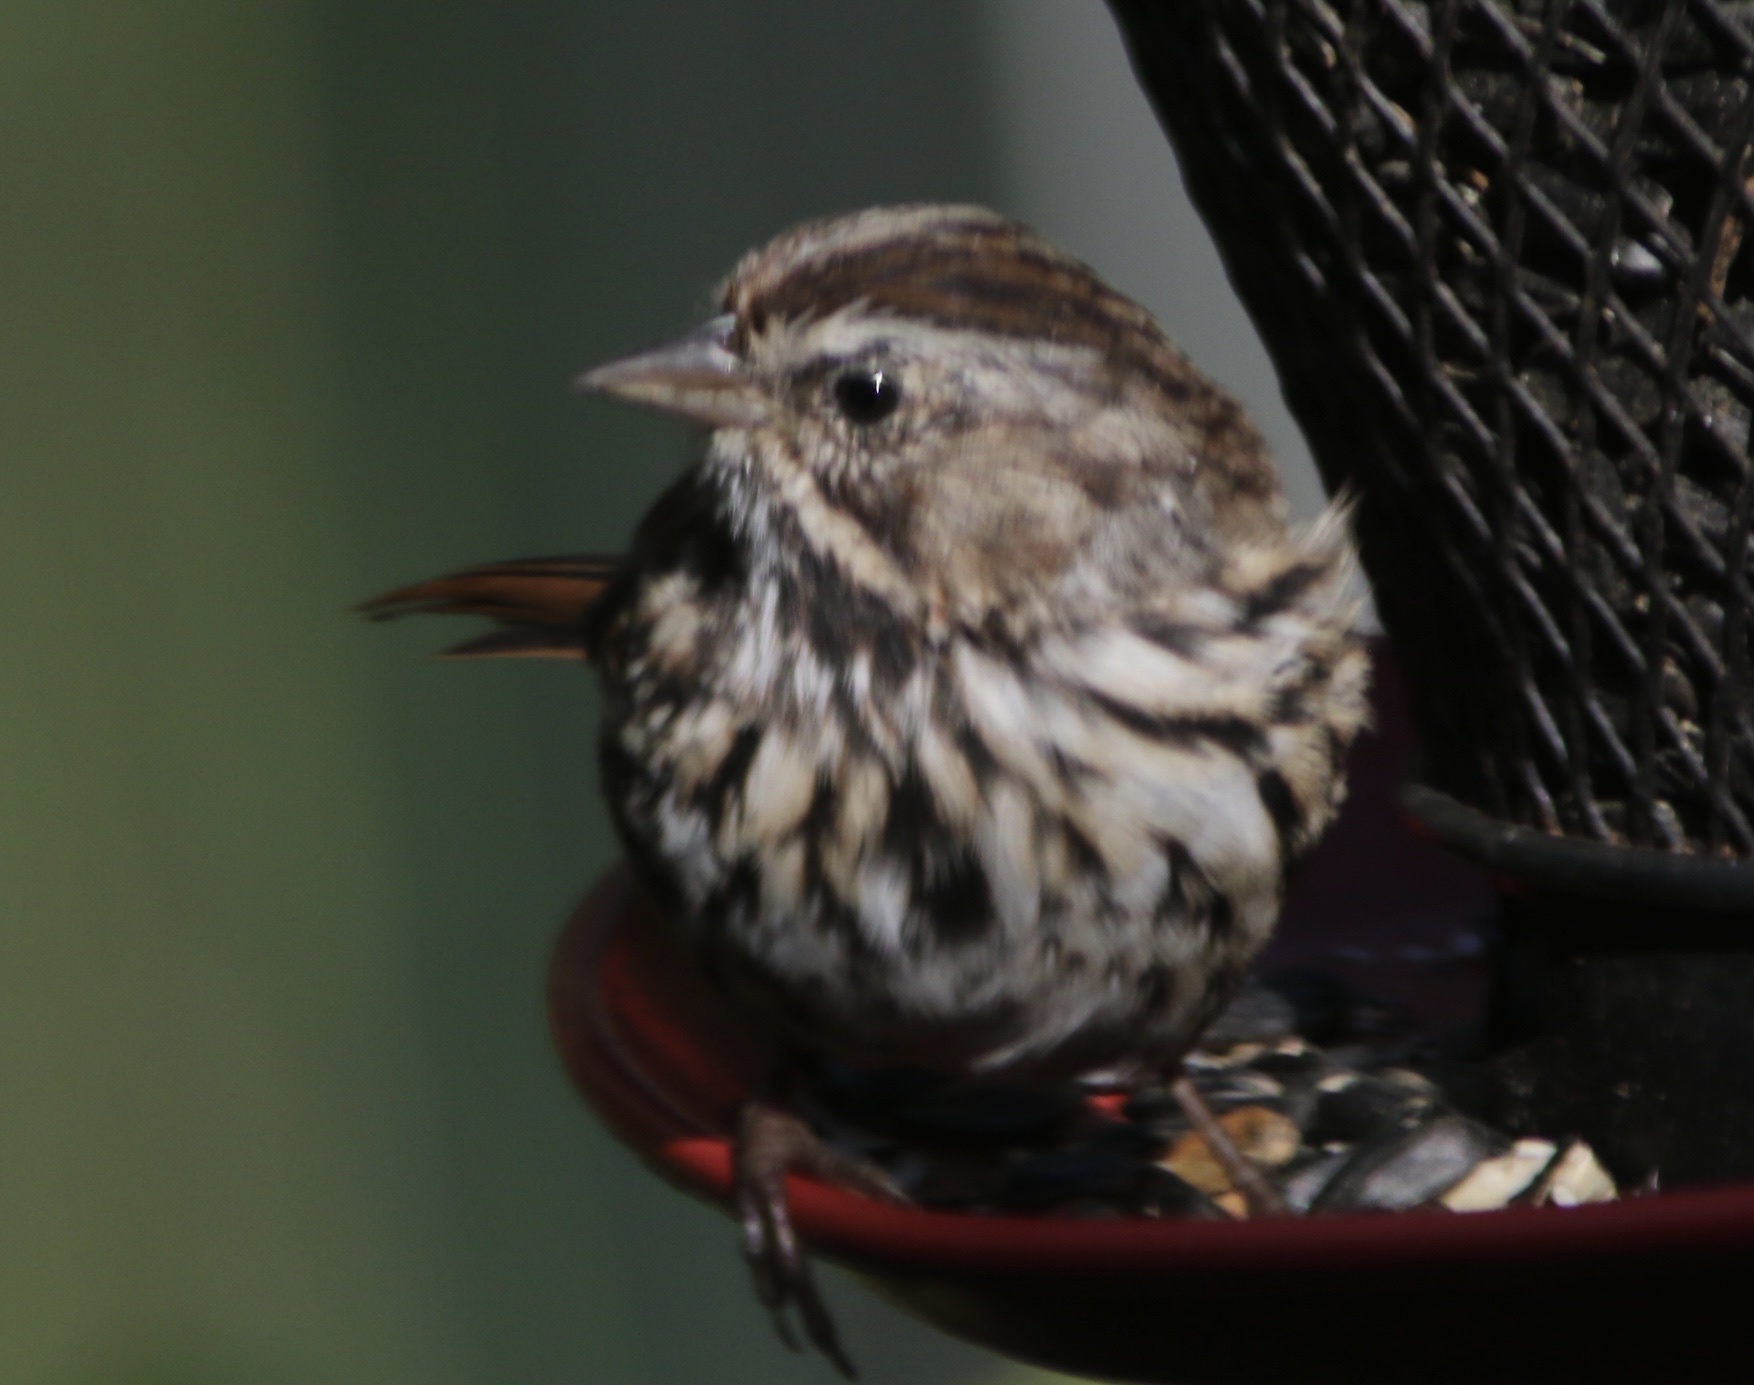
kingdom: Animalia
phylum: Chordata
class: Aves
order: Passeriformes
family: Passerellidae
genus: Melospiza
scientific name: Melospiza melodia
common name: Song sparrow
